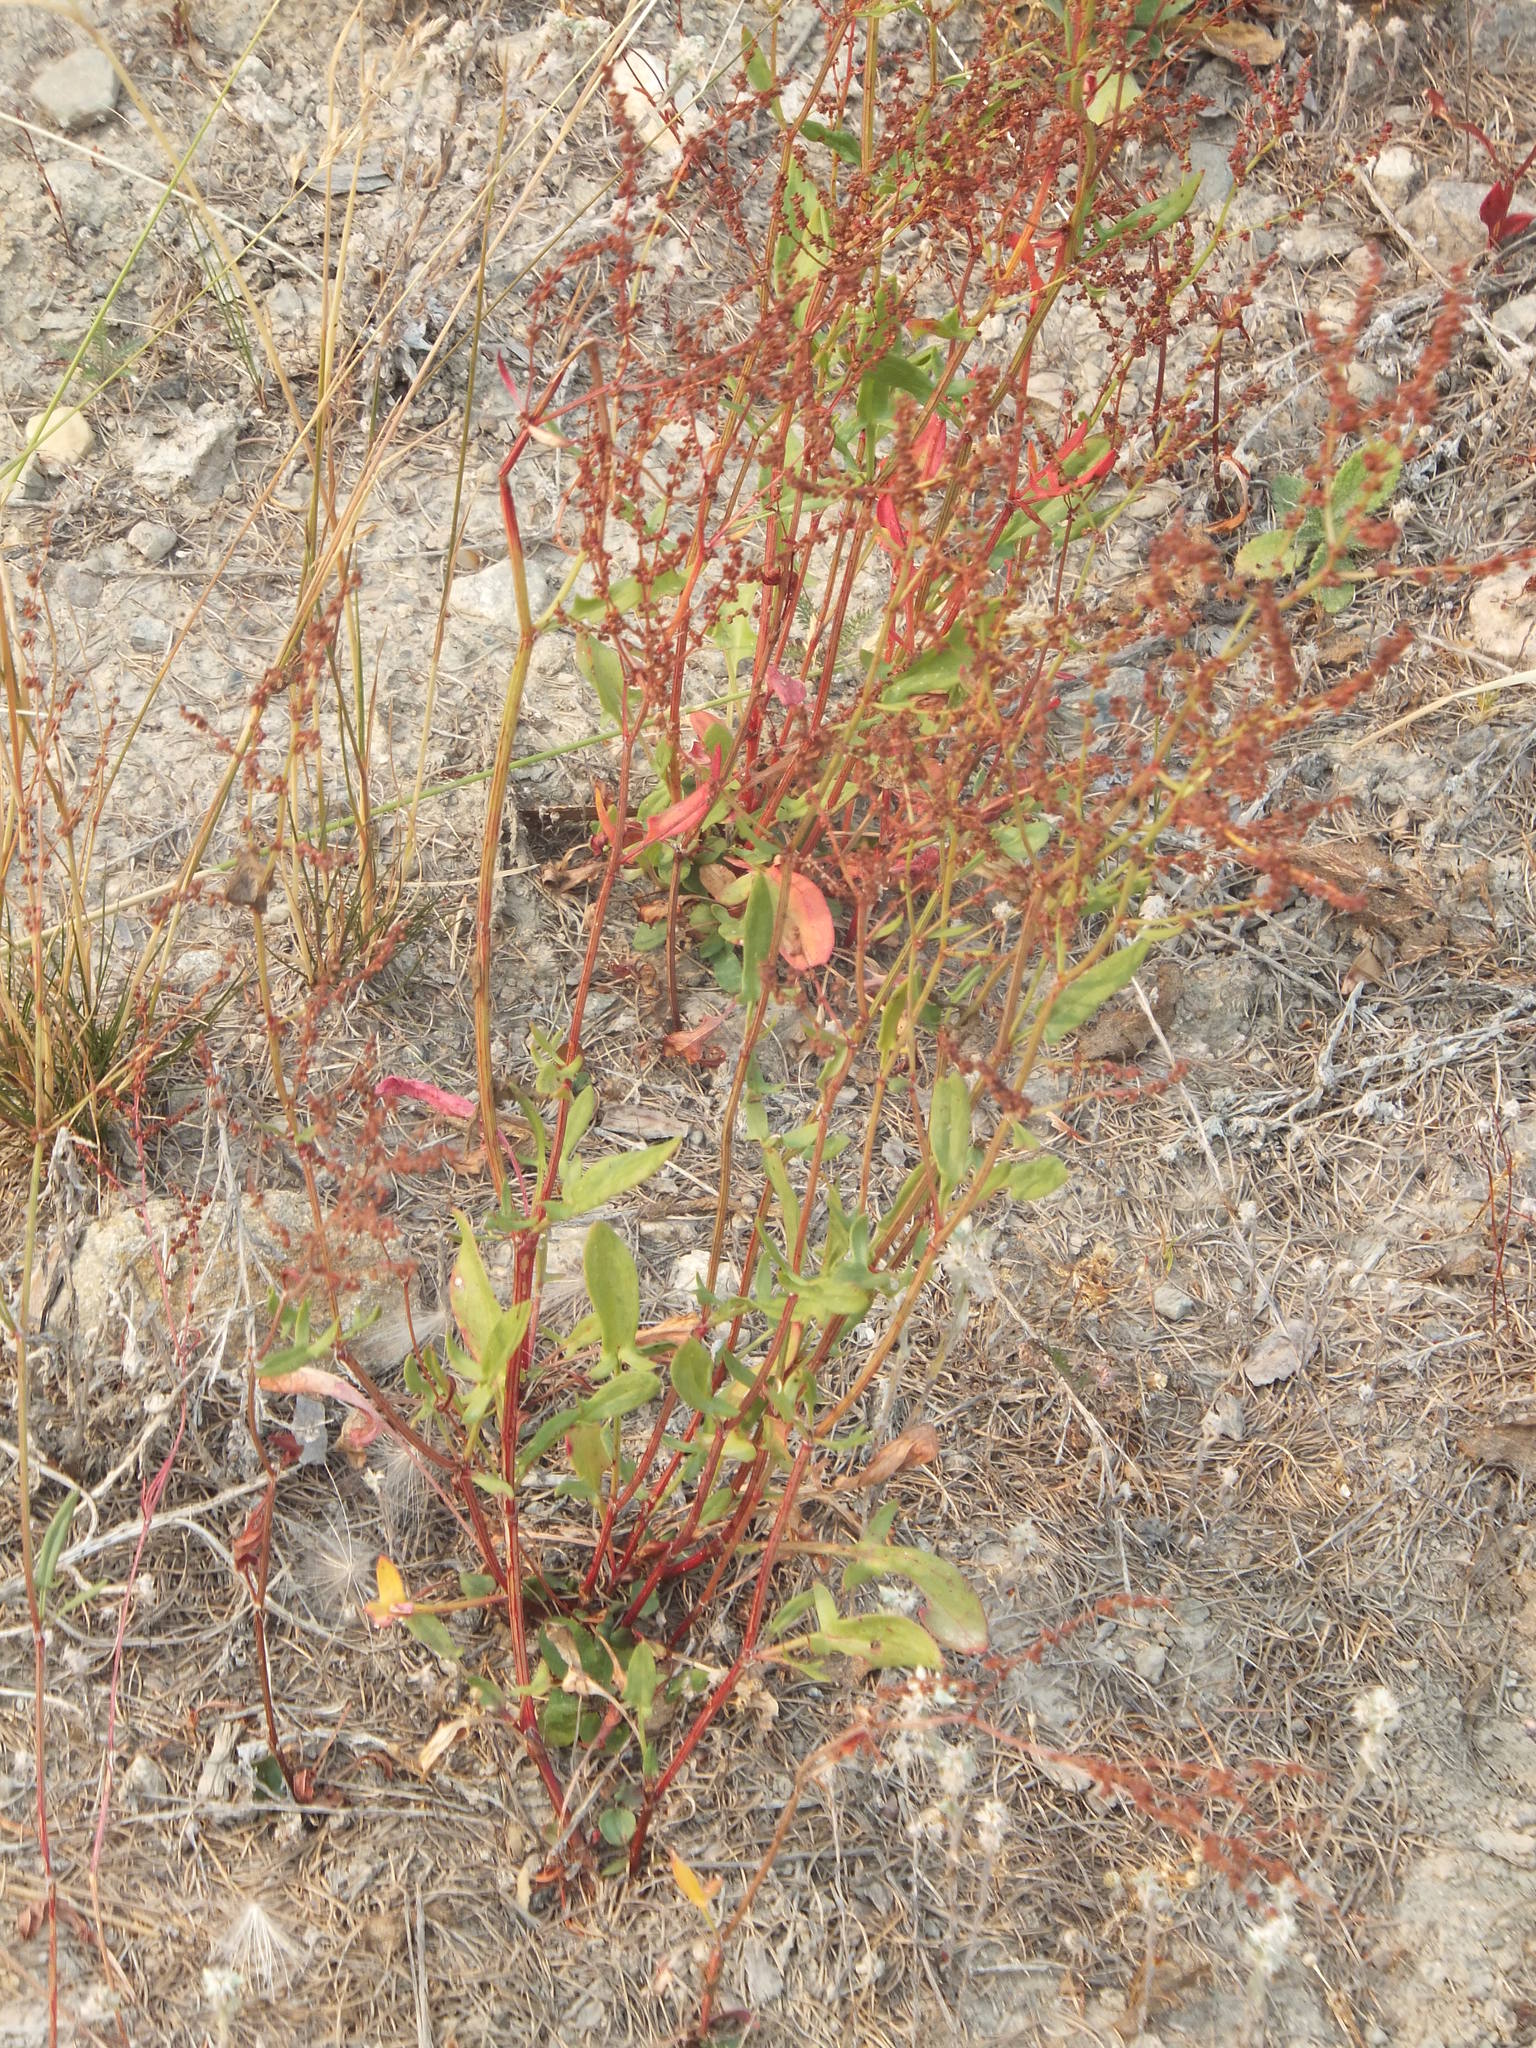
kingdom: Plantae
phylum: Tracheophyta
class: Magnoliopsida
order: Caryophyllales
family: Polygonaceae
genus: Rumex
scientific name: Rumex acetosella
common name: Common sheep sorrel
